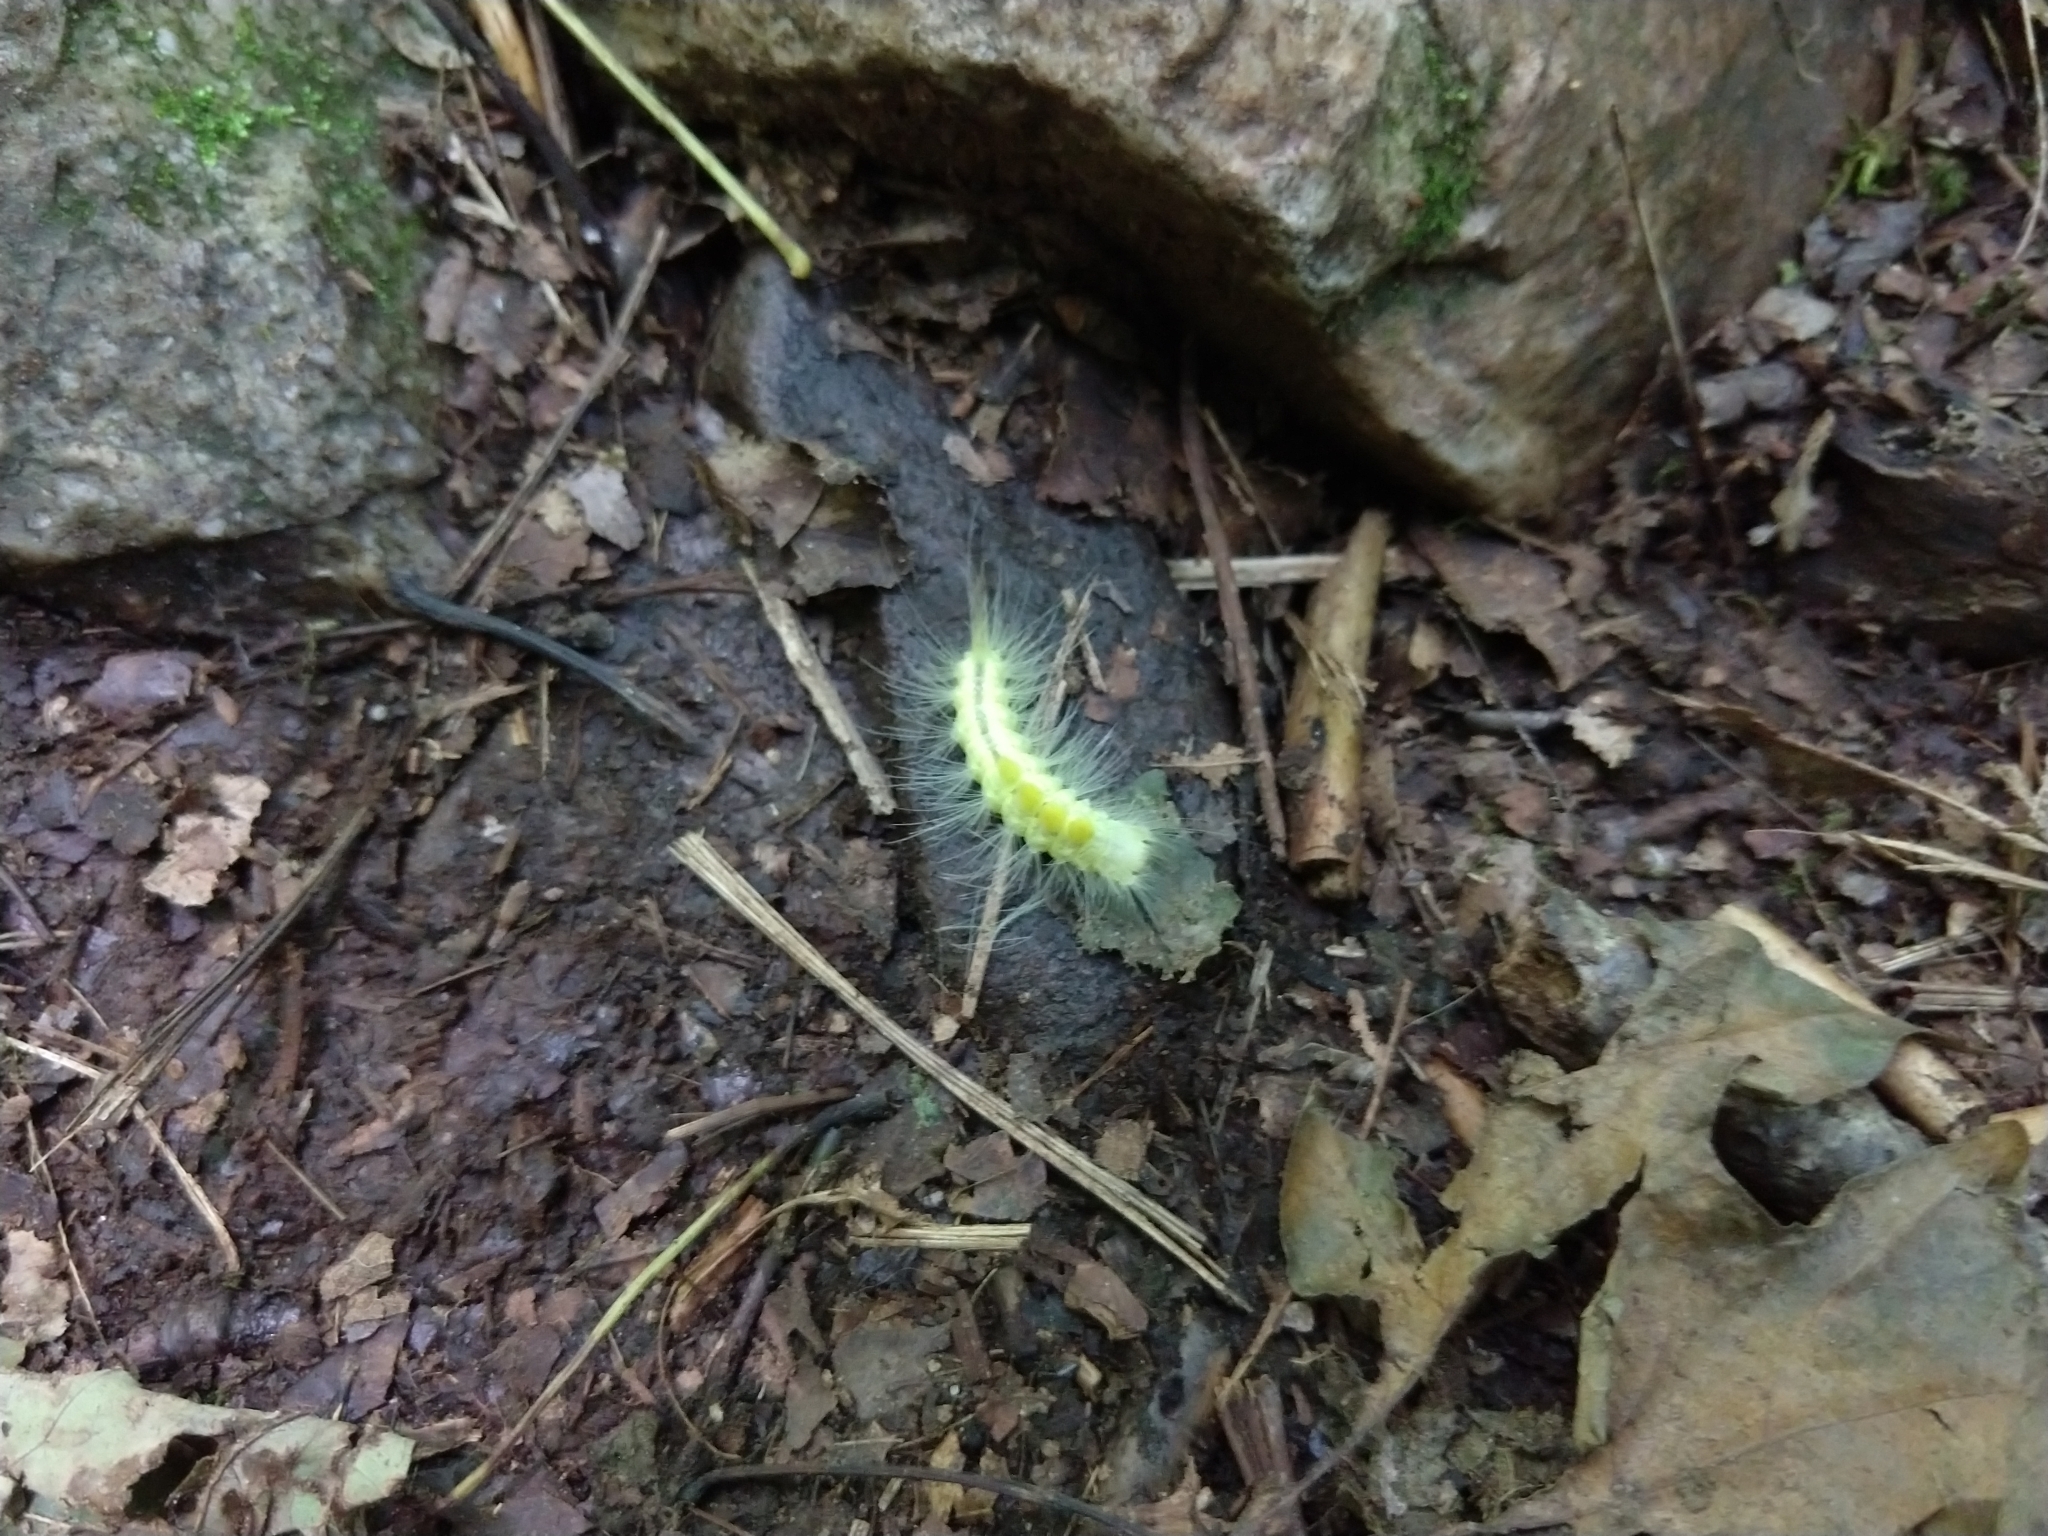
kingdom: Animalia
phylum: Arthropoda
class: Insecta
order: Lepidoptera
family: Erebidae
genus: Orgyia
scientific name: Orgyia definita
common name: Definite tussock moth
